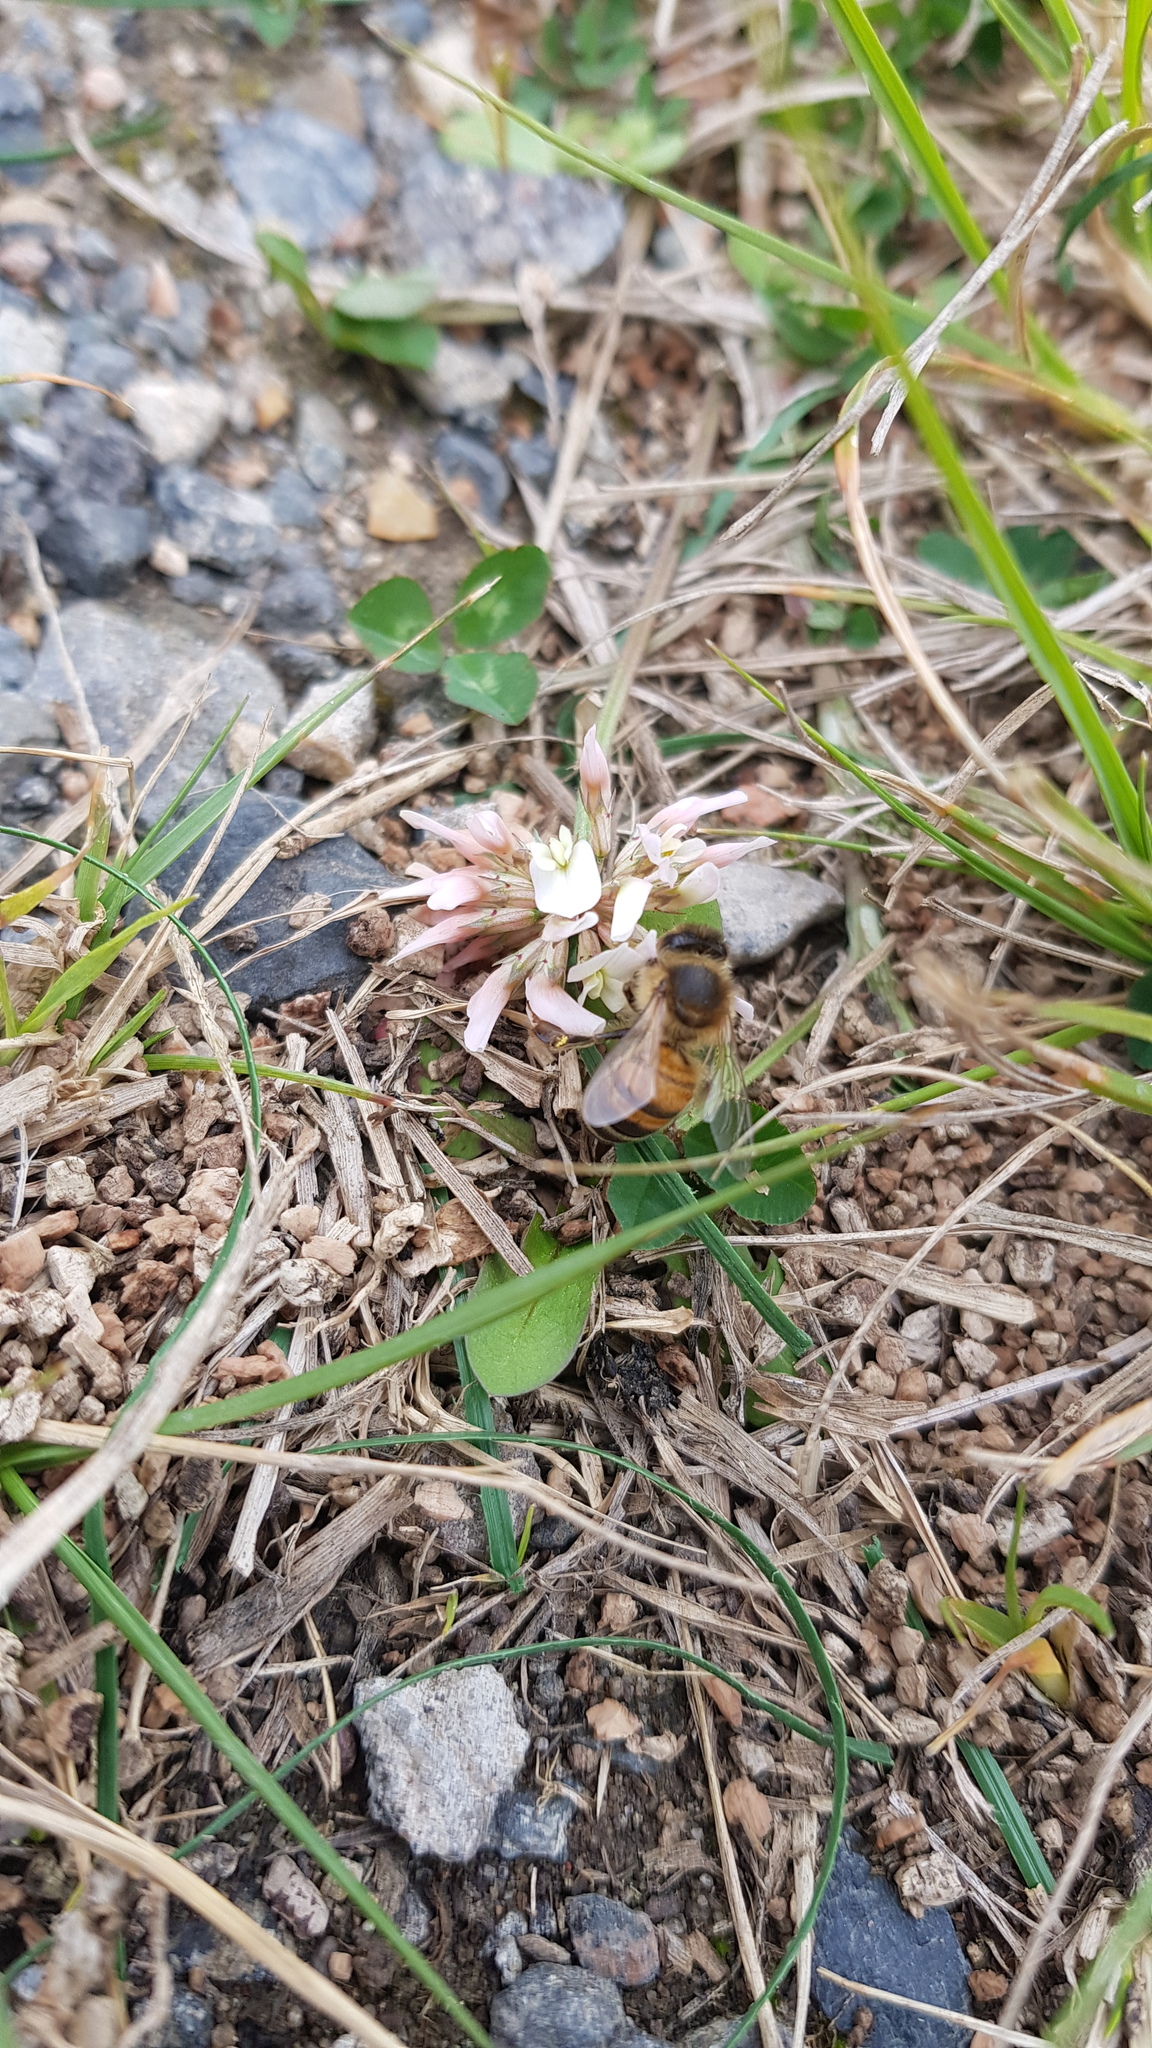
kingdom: Animalia
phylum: Arthropoda
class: Insecta
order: Hymenoptera
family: Apidae
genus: Apis
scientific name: Apis mellifera
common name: Honey bee
